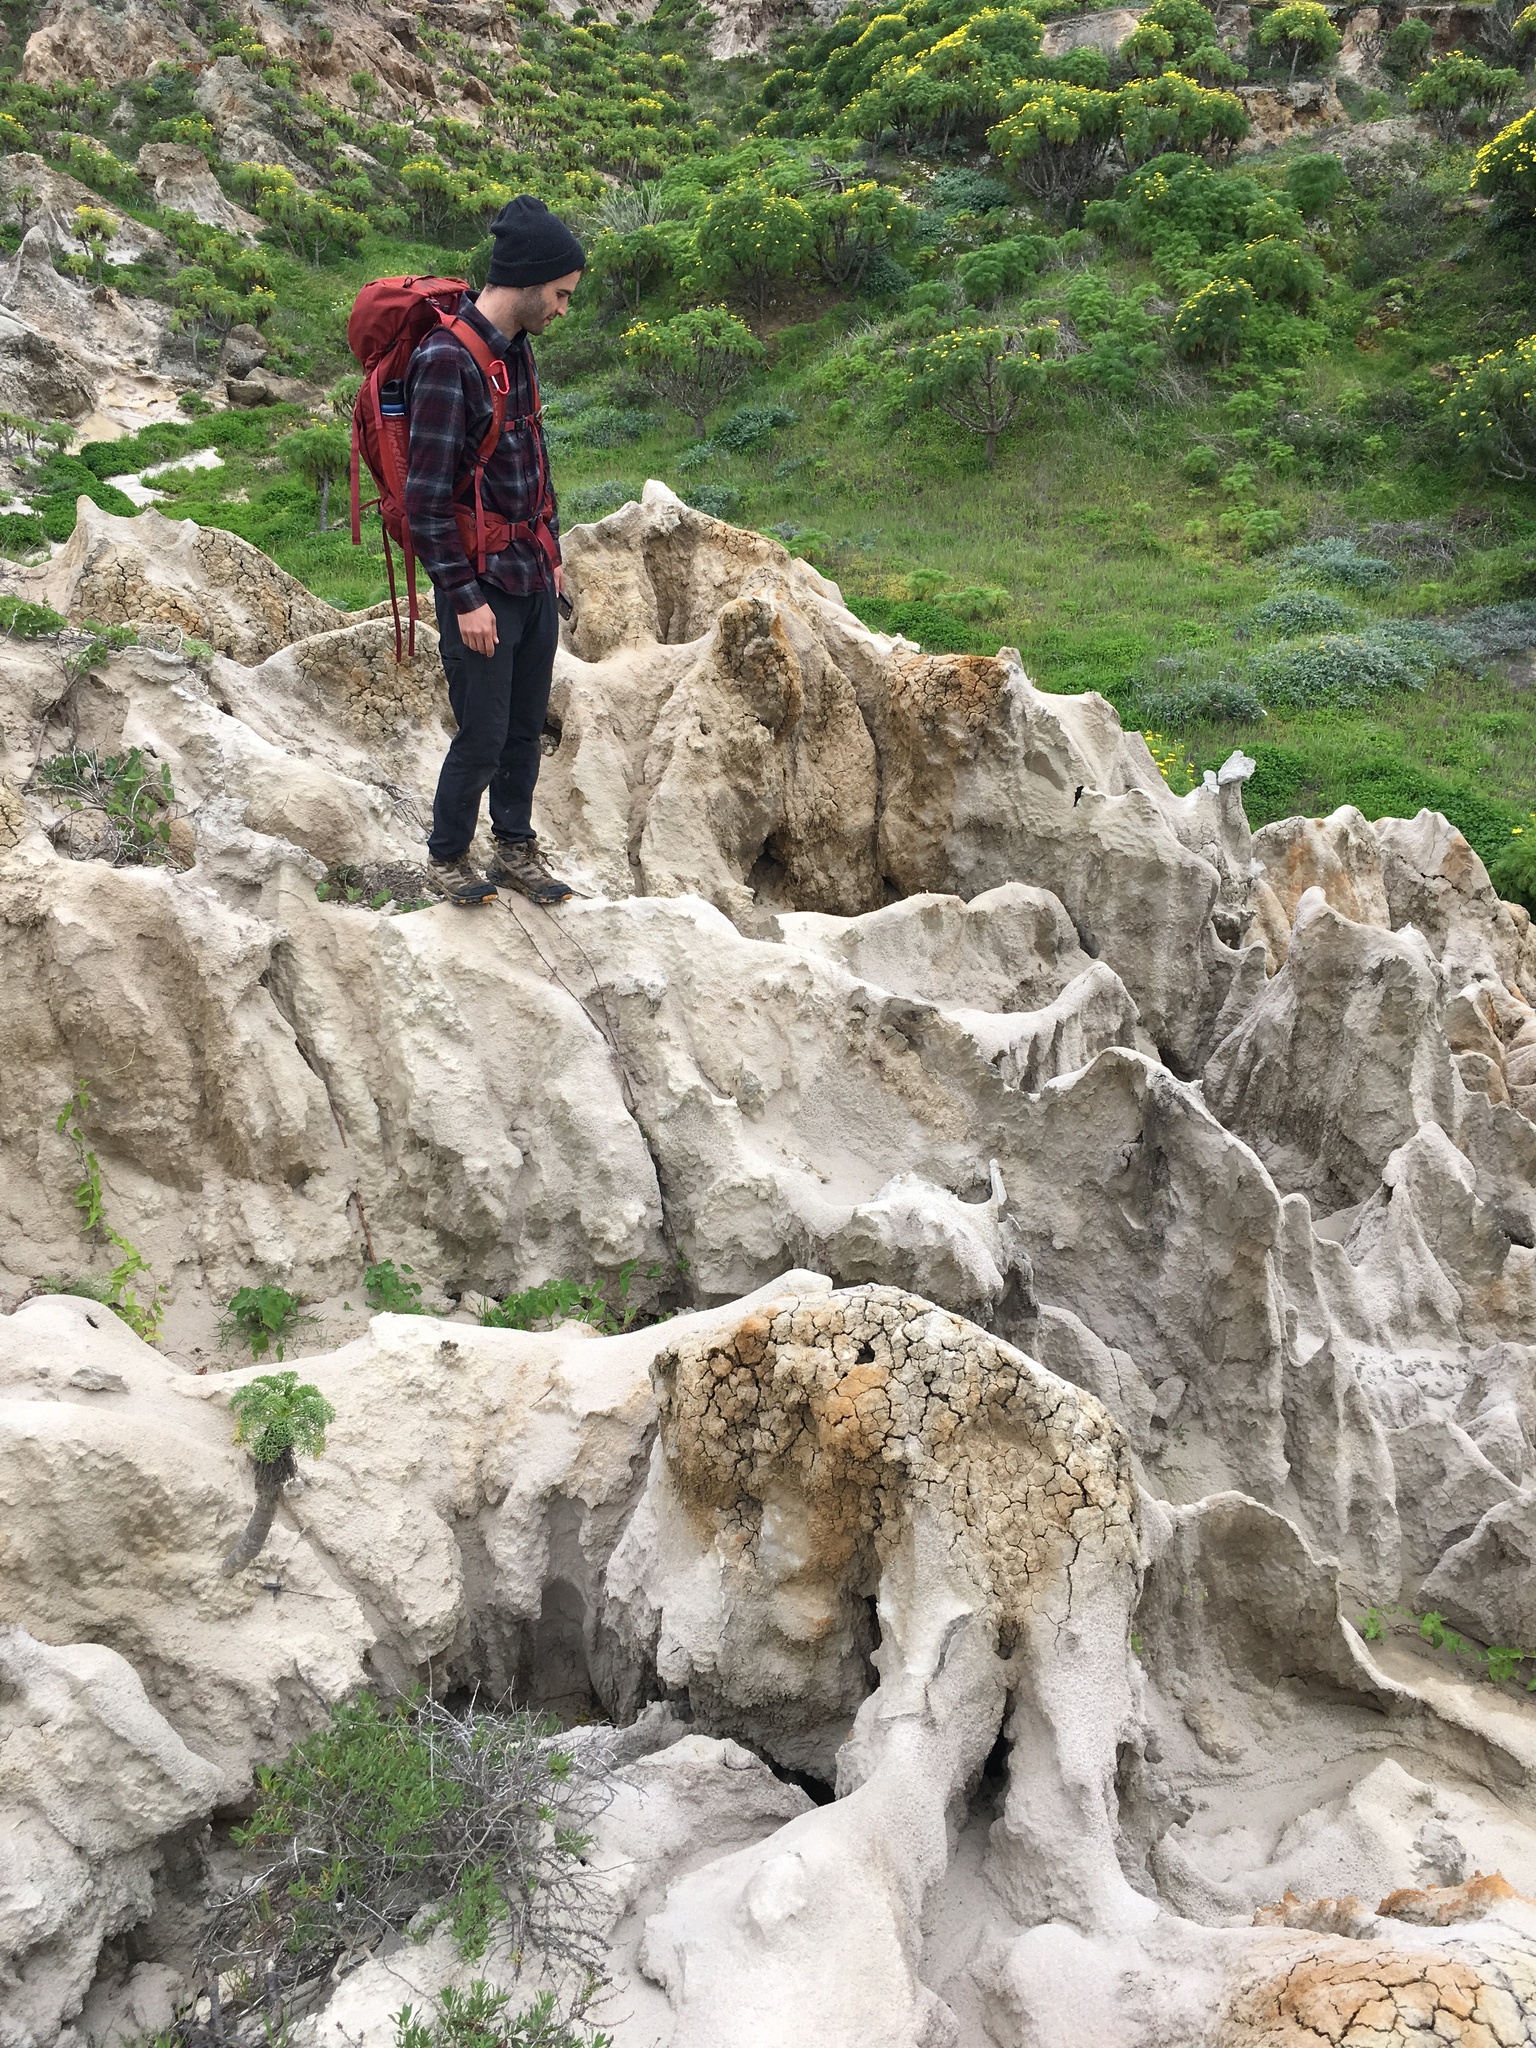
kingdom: Plantae
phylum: Tracheophyta
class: Magnoliopsida
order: Asterales
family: Asteraceae
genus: Coreopsis
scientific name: Coreopsis gigantea
